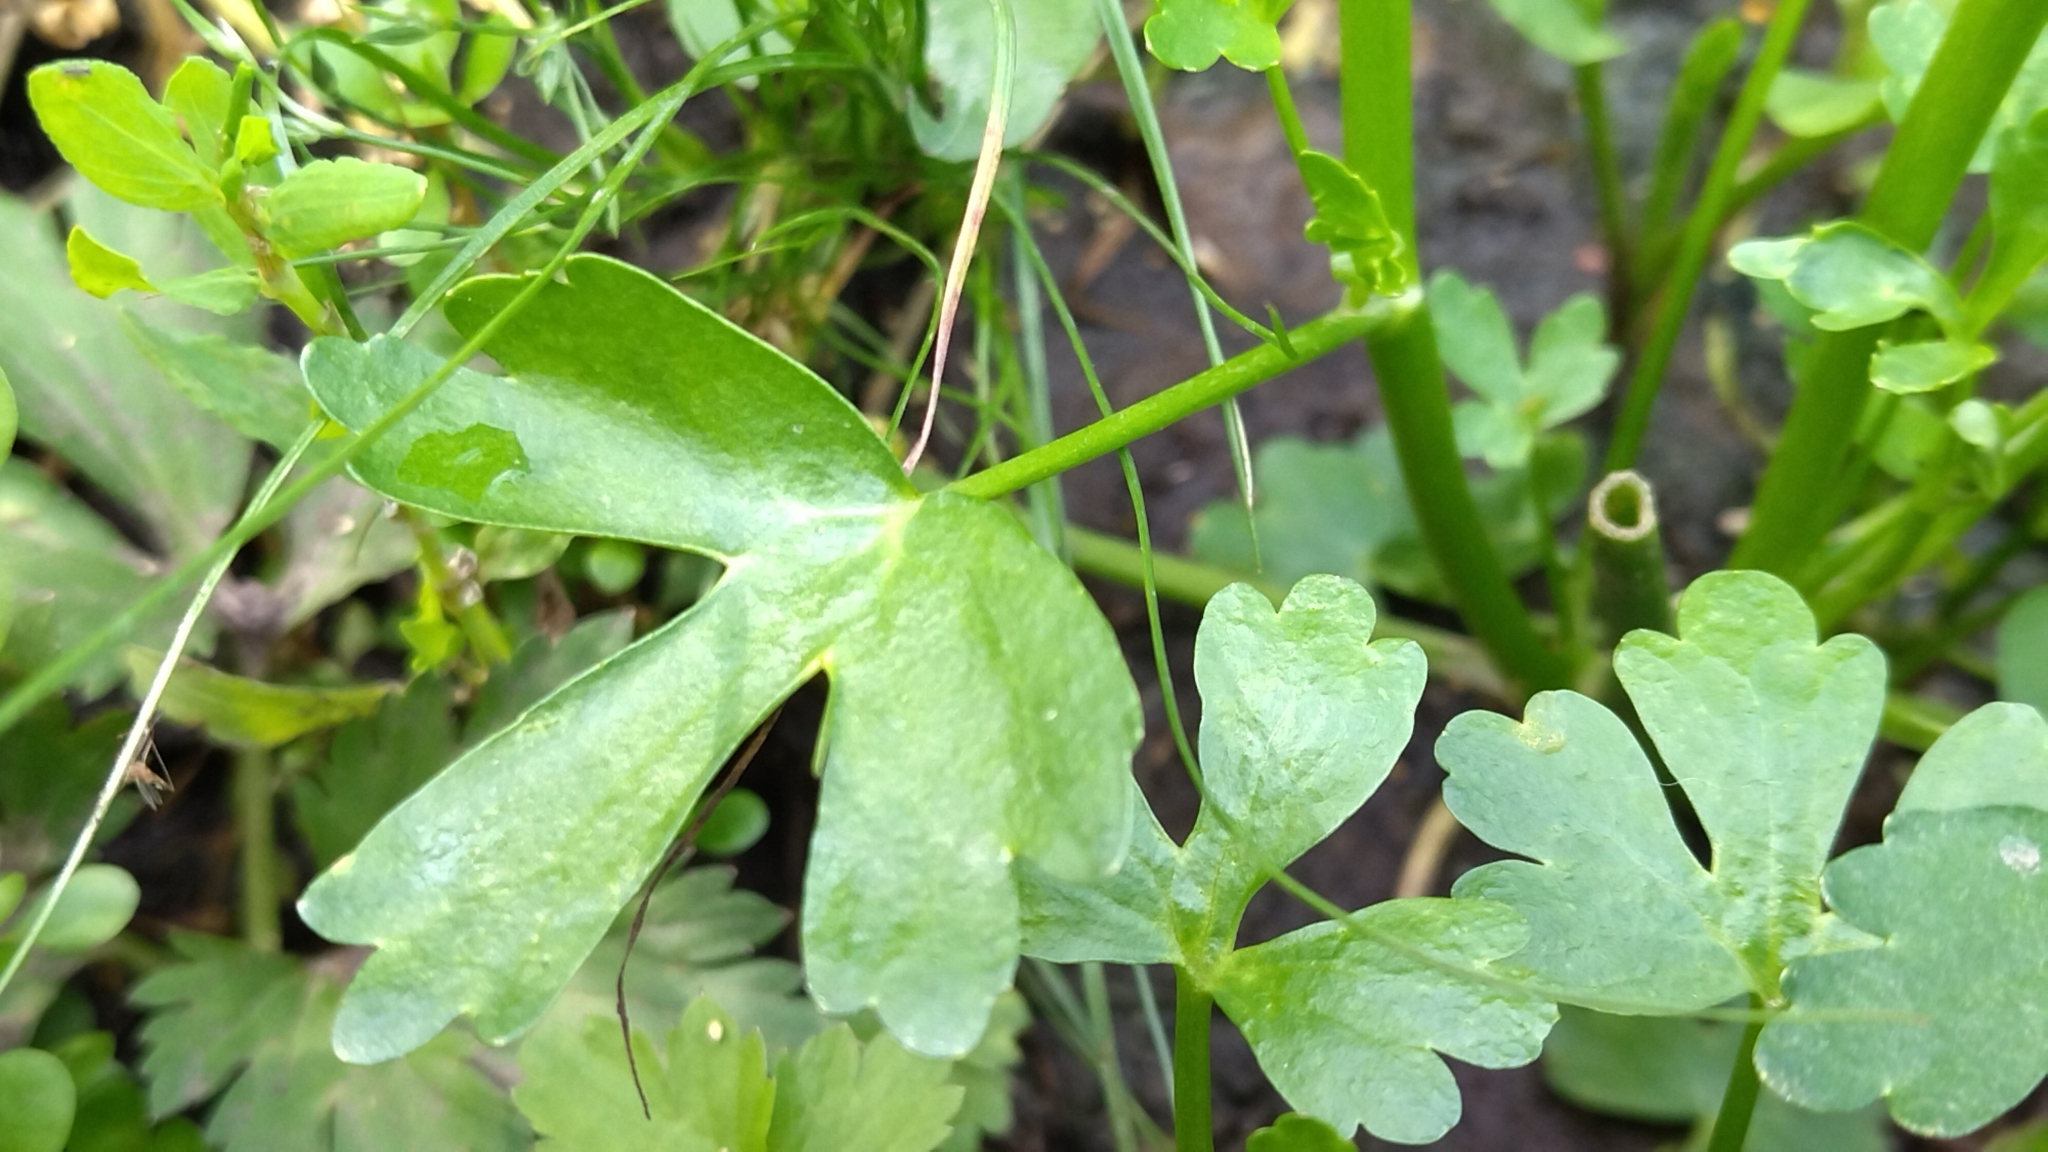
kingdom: Plantae
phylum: Tracheophyta
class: Magnoliopsida
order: Ranunculales
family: Ranunculaceae
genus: Ranunculus
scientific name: Ranunculus sceleratus
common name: Celery-leaved buttercup
